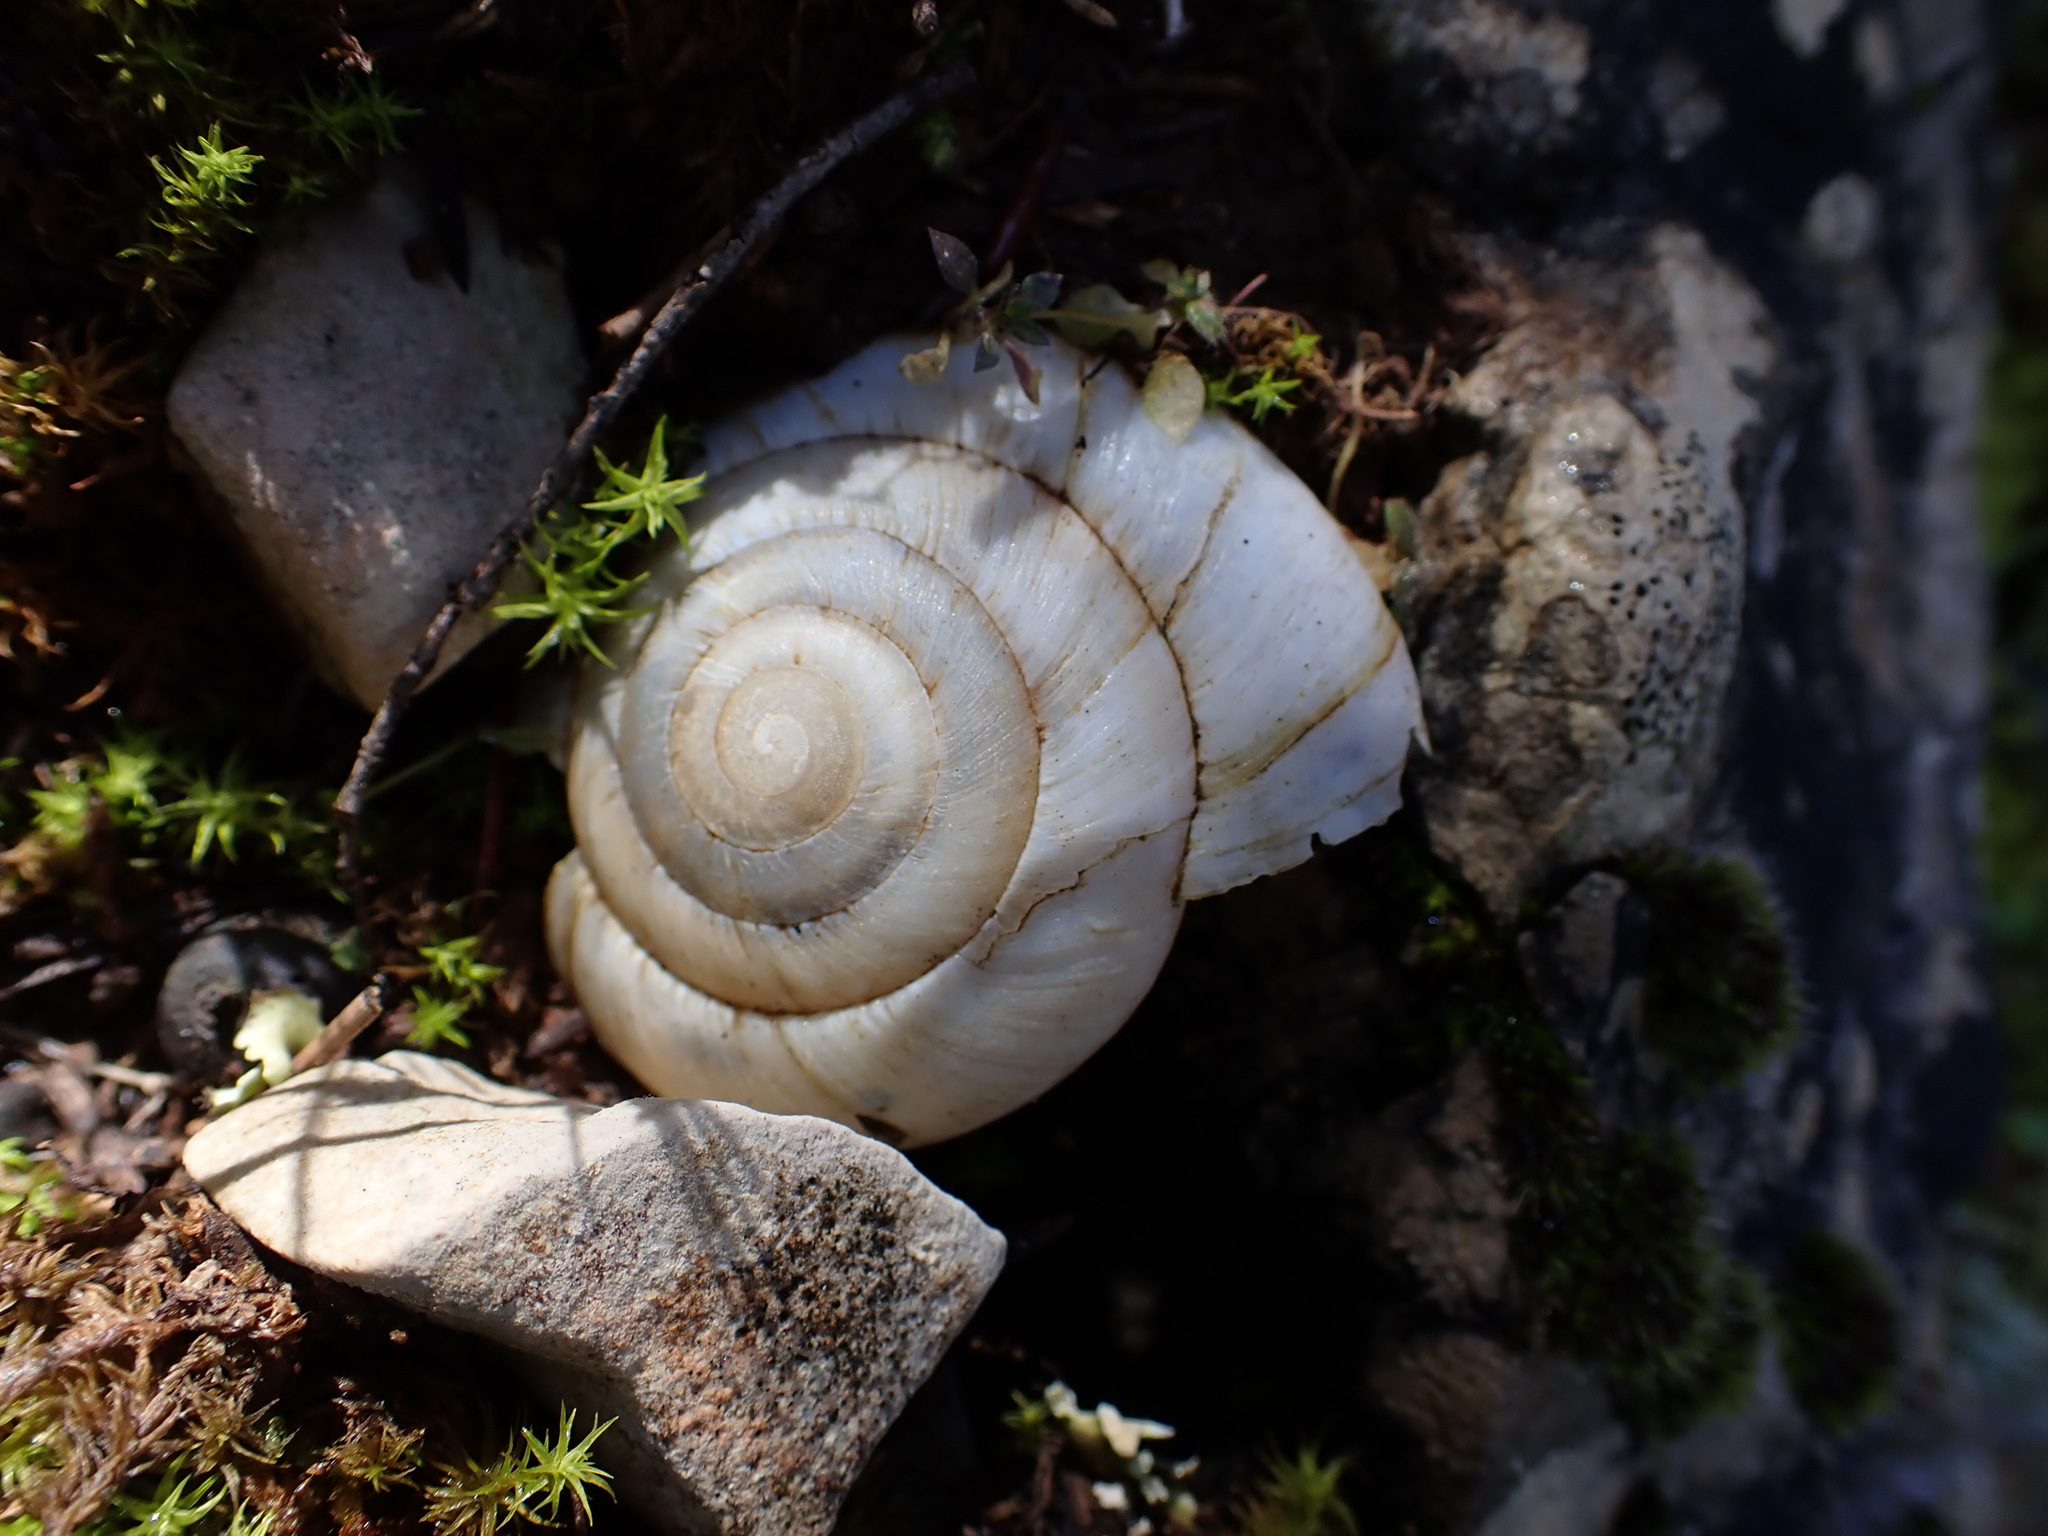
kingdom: Animalia
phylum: Mollusca
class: Gastropoda
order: Stylommatophora
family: Zonitidae
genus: Zonites
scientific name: Zonites algirus
